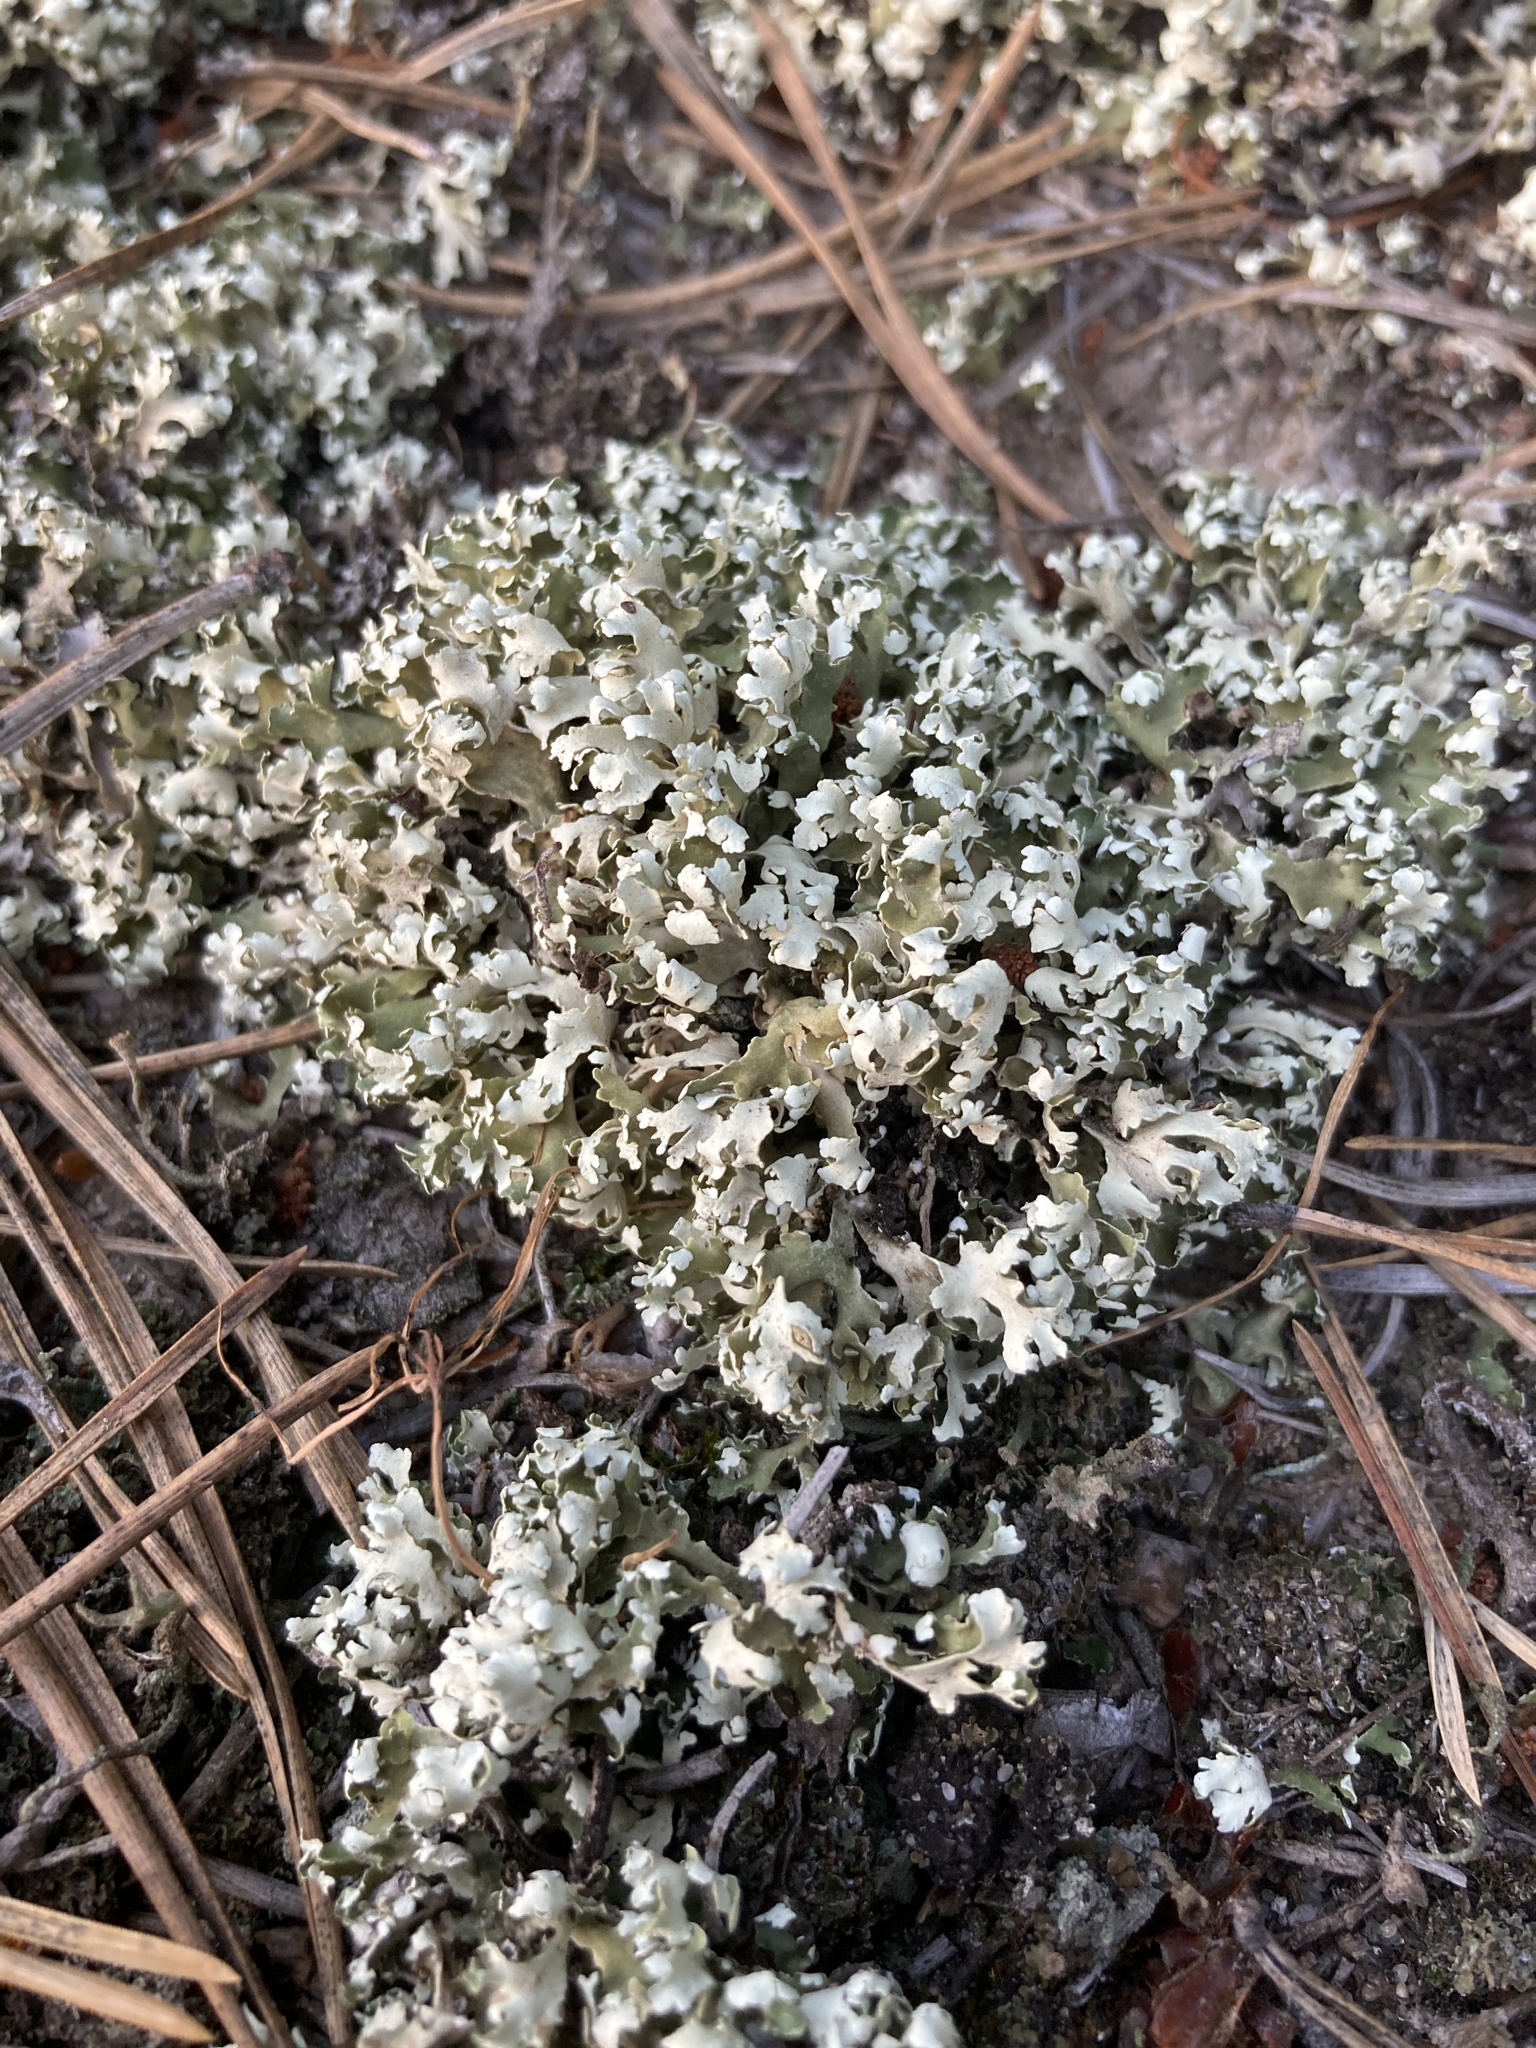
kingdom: Fungi
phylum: Ascomycota
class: Lecanoromycetes
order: Lecanorales
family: Cladoniaceae
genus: Cladonia
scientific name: Cladonia foliacea
